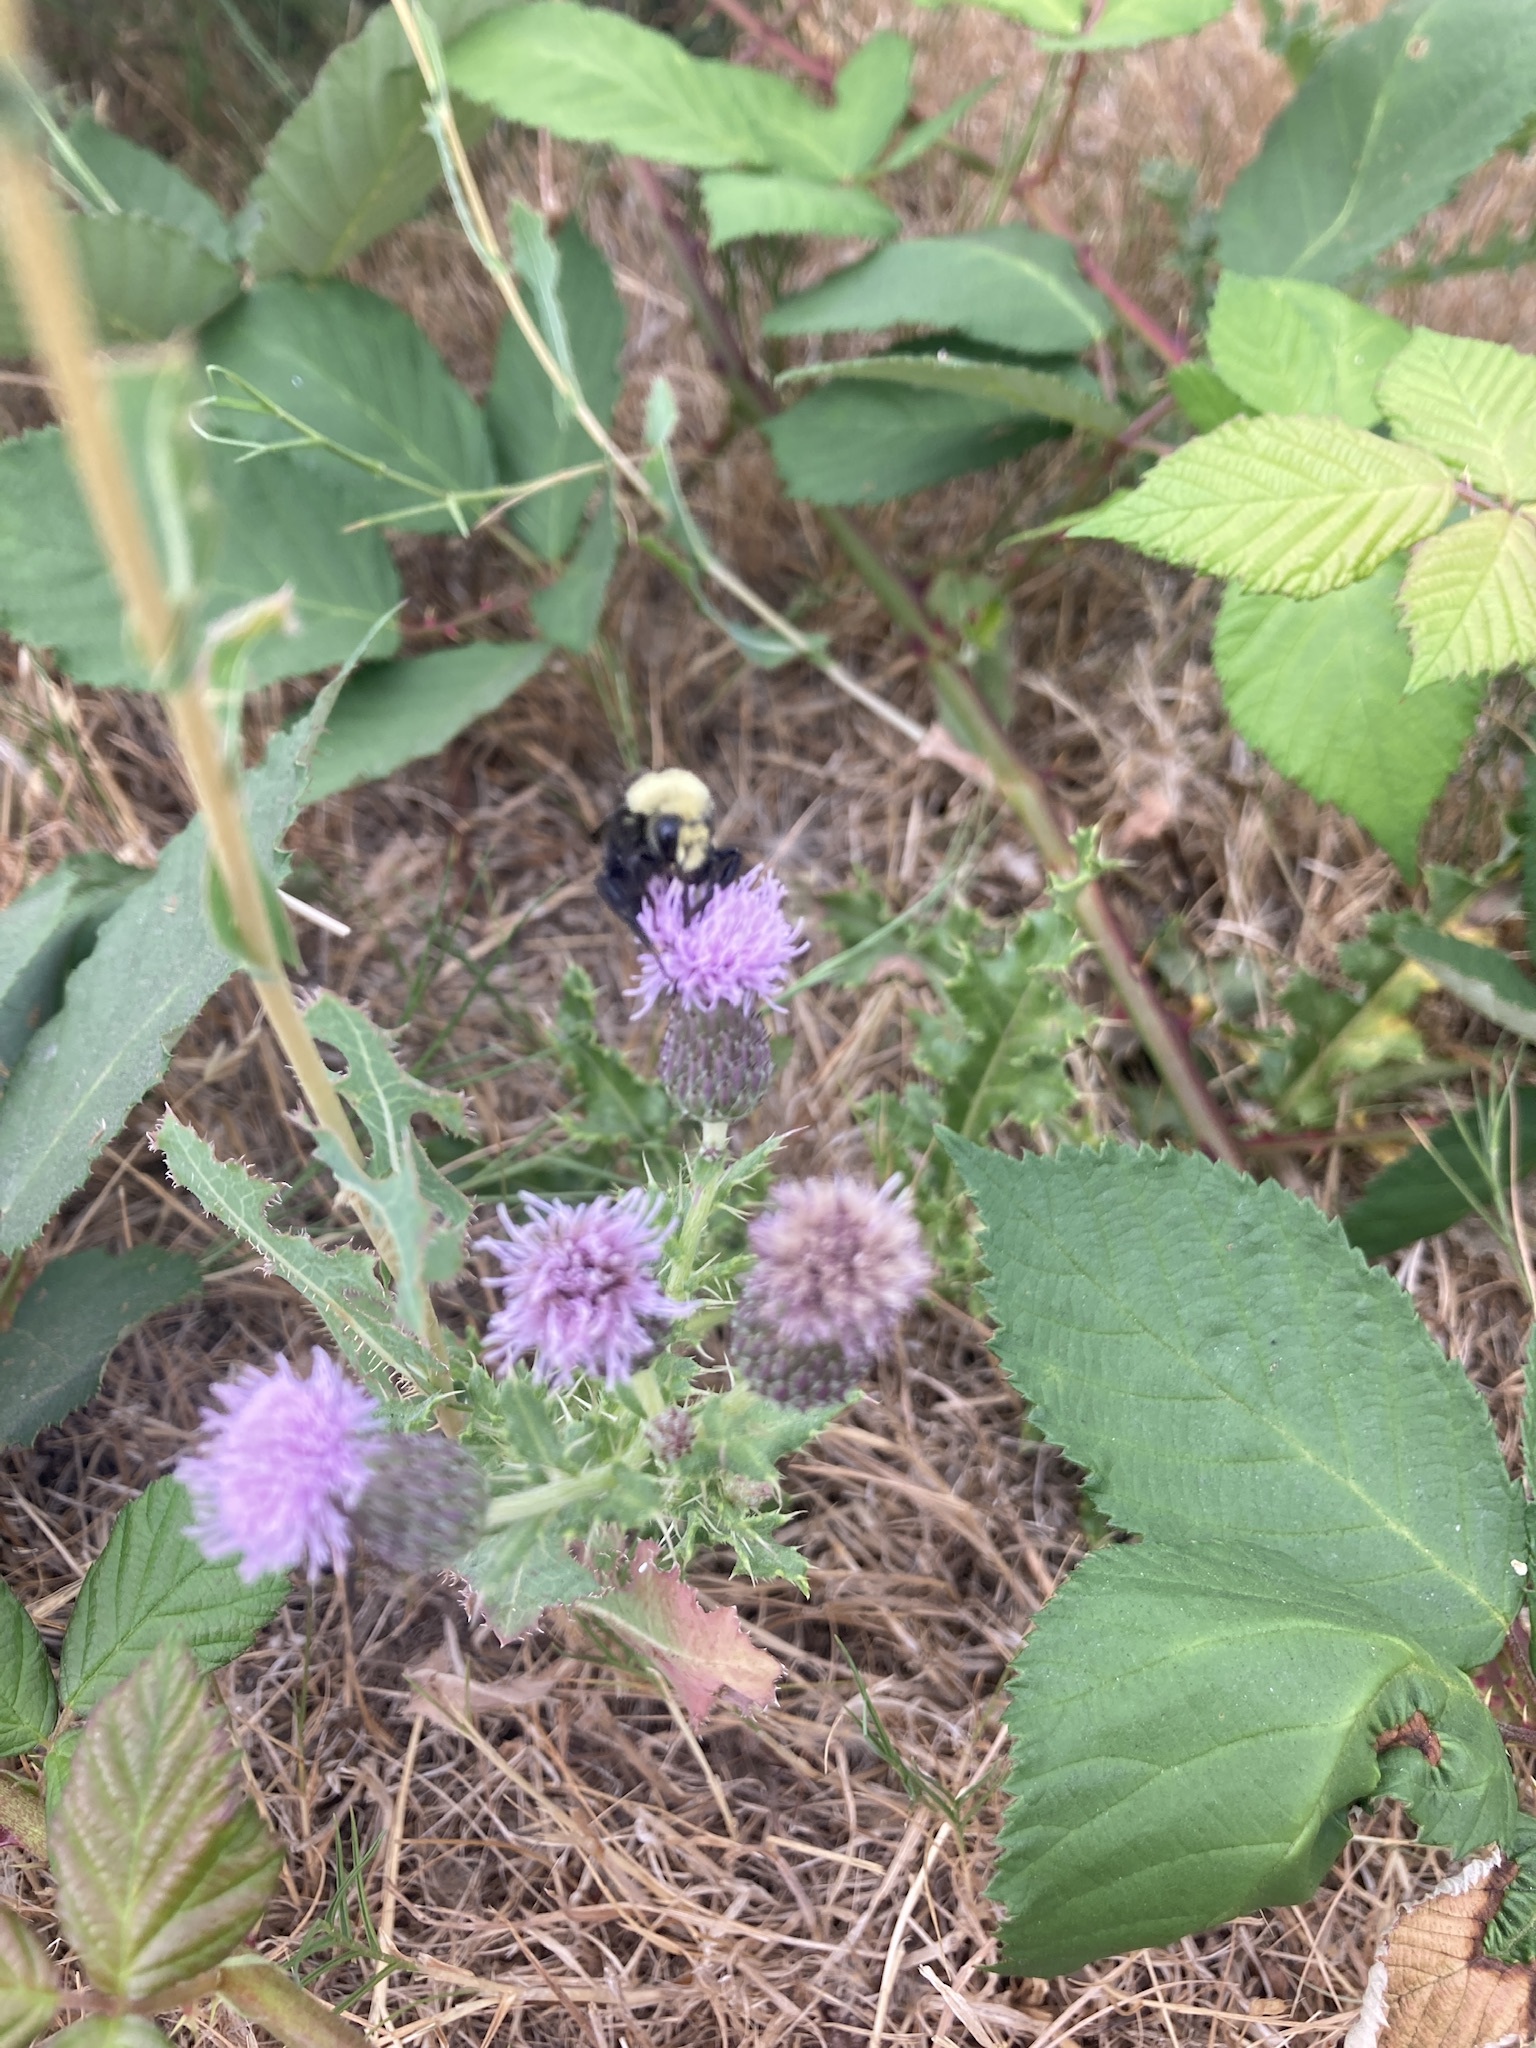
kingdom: Animalia
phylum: Arthropoda
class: Insecta
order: Hymenoptera
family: Apidae
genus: Bombus
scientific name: Bombus vosnesenskii
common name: Vosnesensky bumble bee
